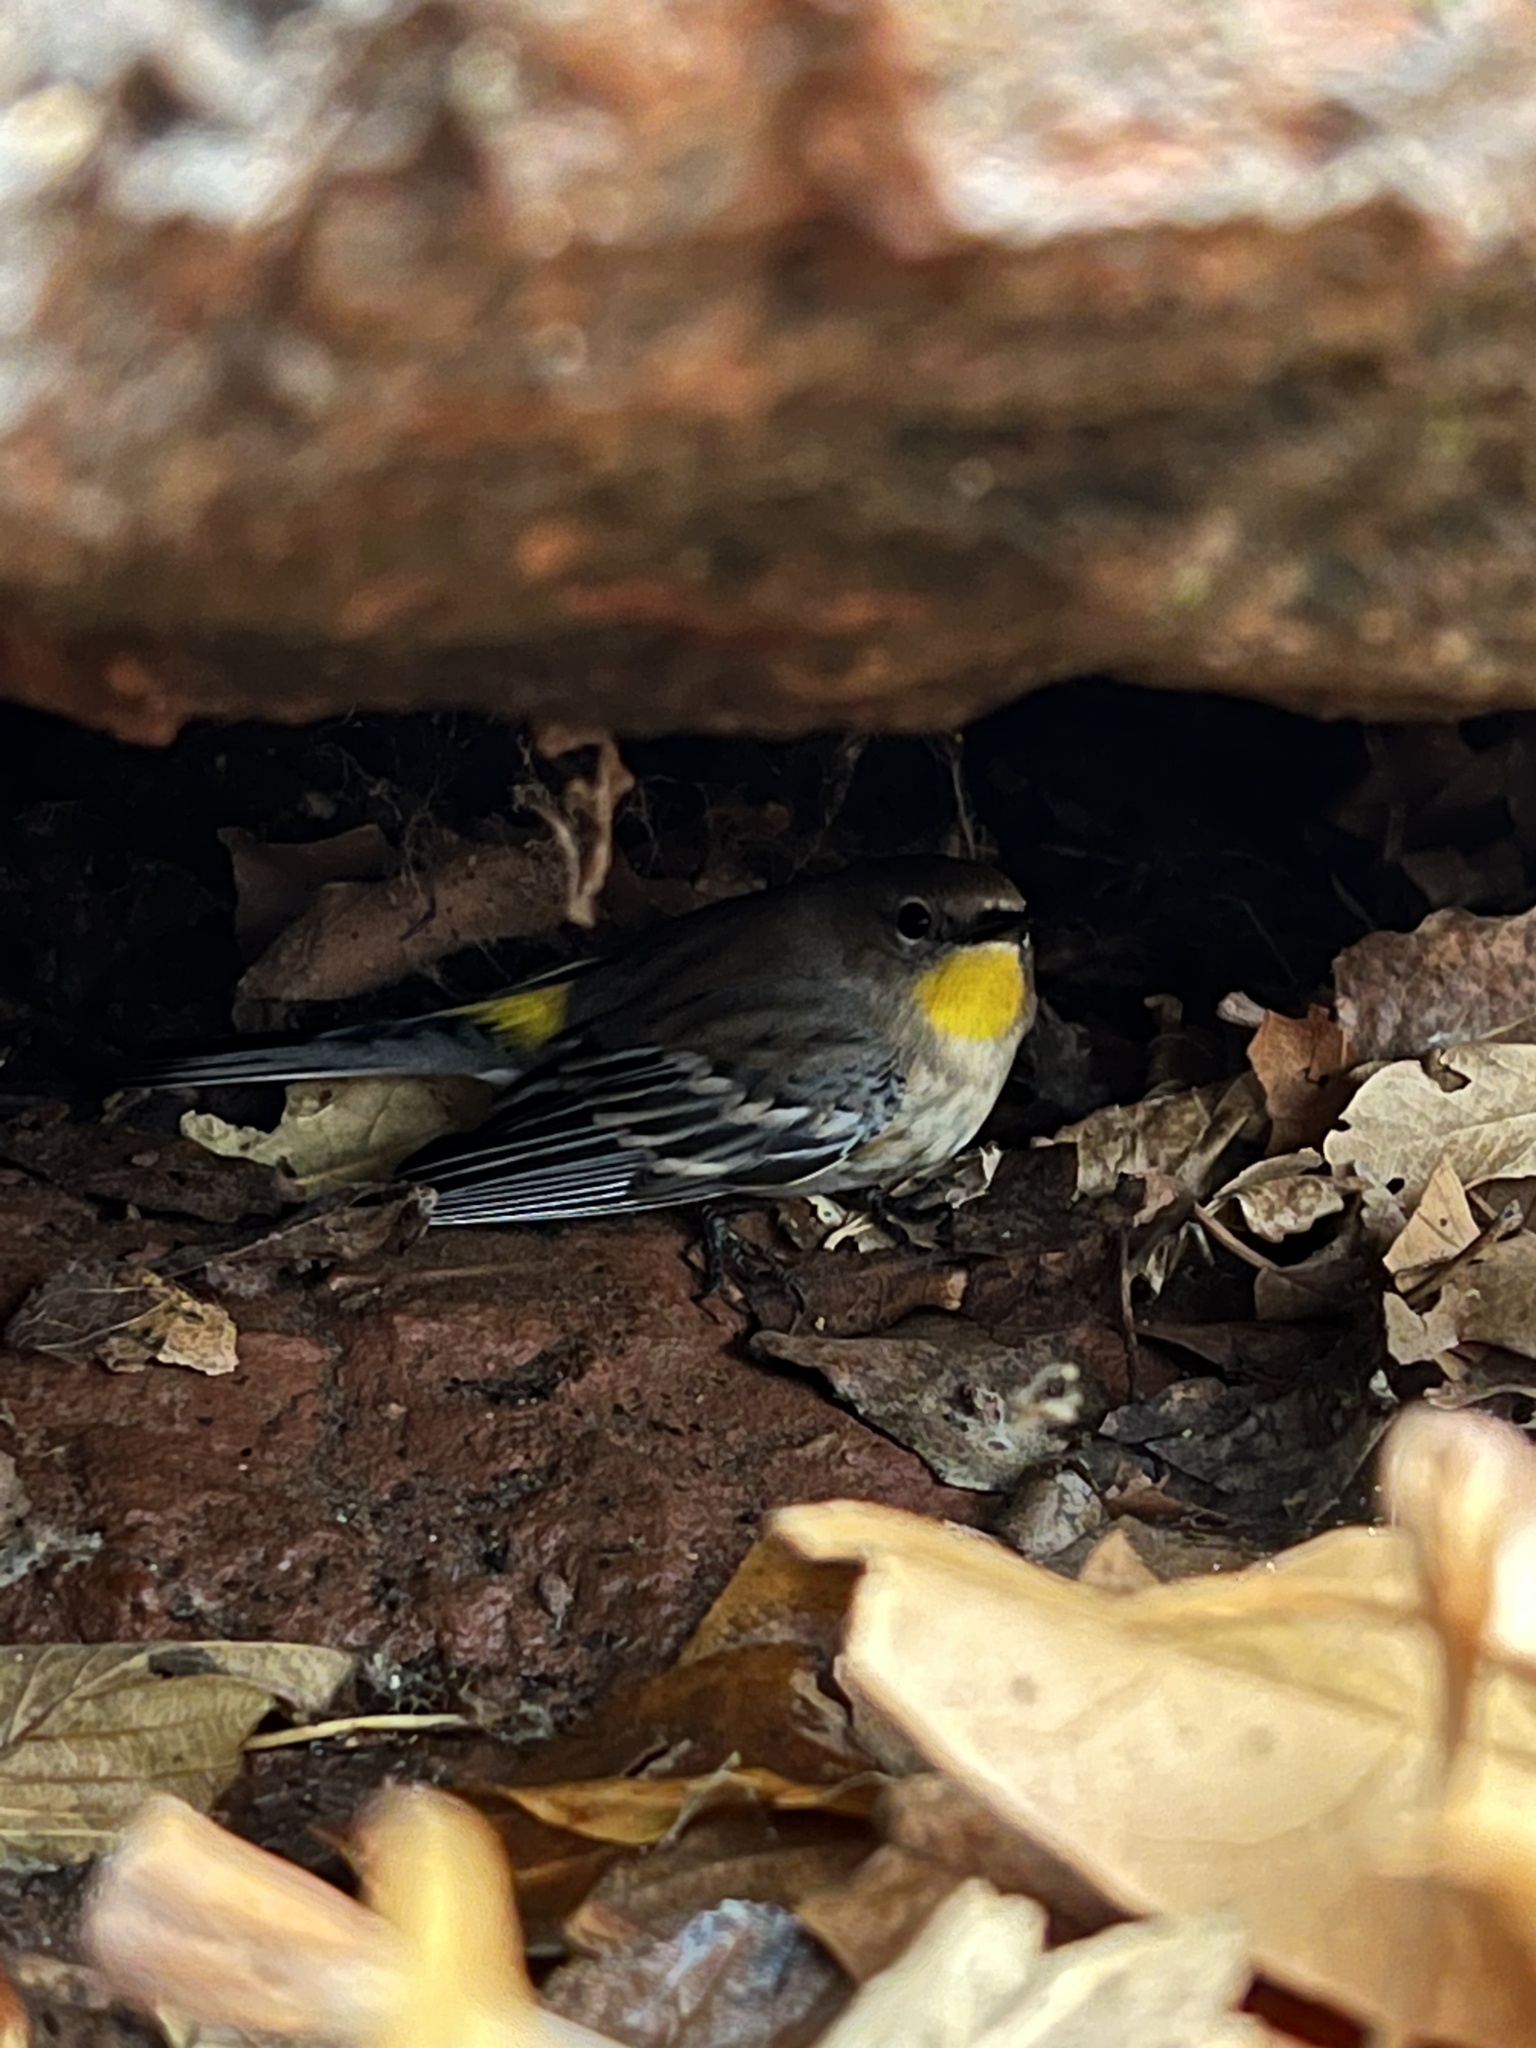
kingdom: Animalia
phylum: Chordata
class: Aves
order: Passeriformes
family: Parulidae
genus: Setophaga
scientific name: Setophaga coronata
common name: Myrtle warbler
